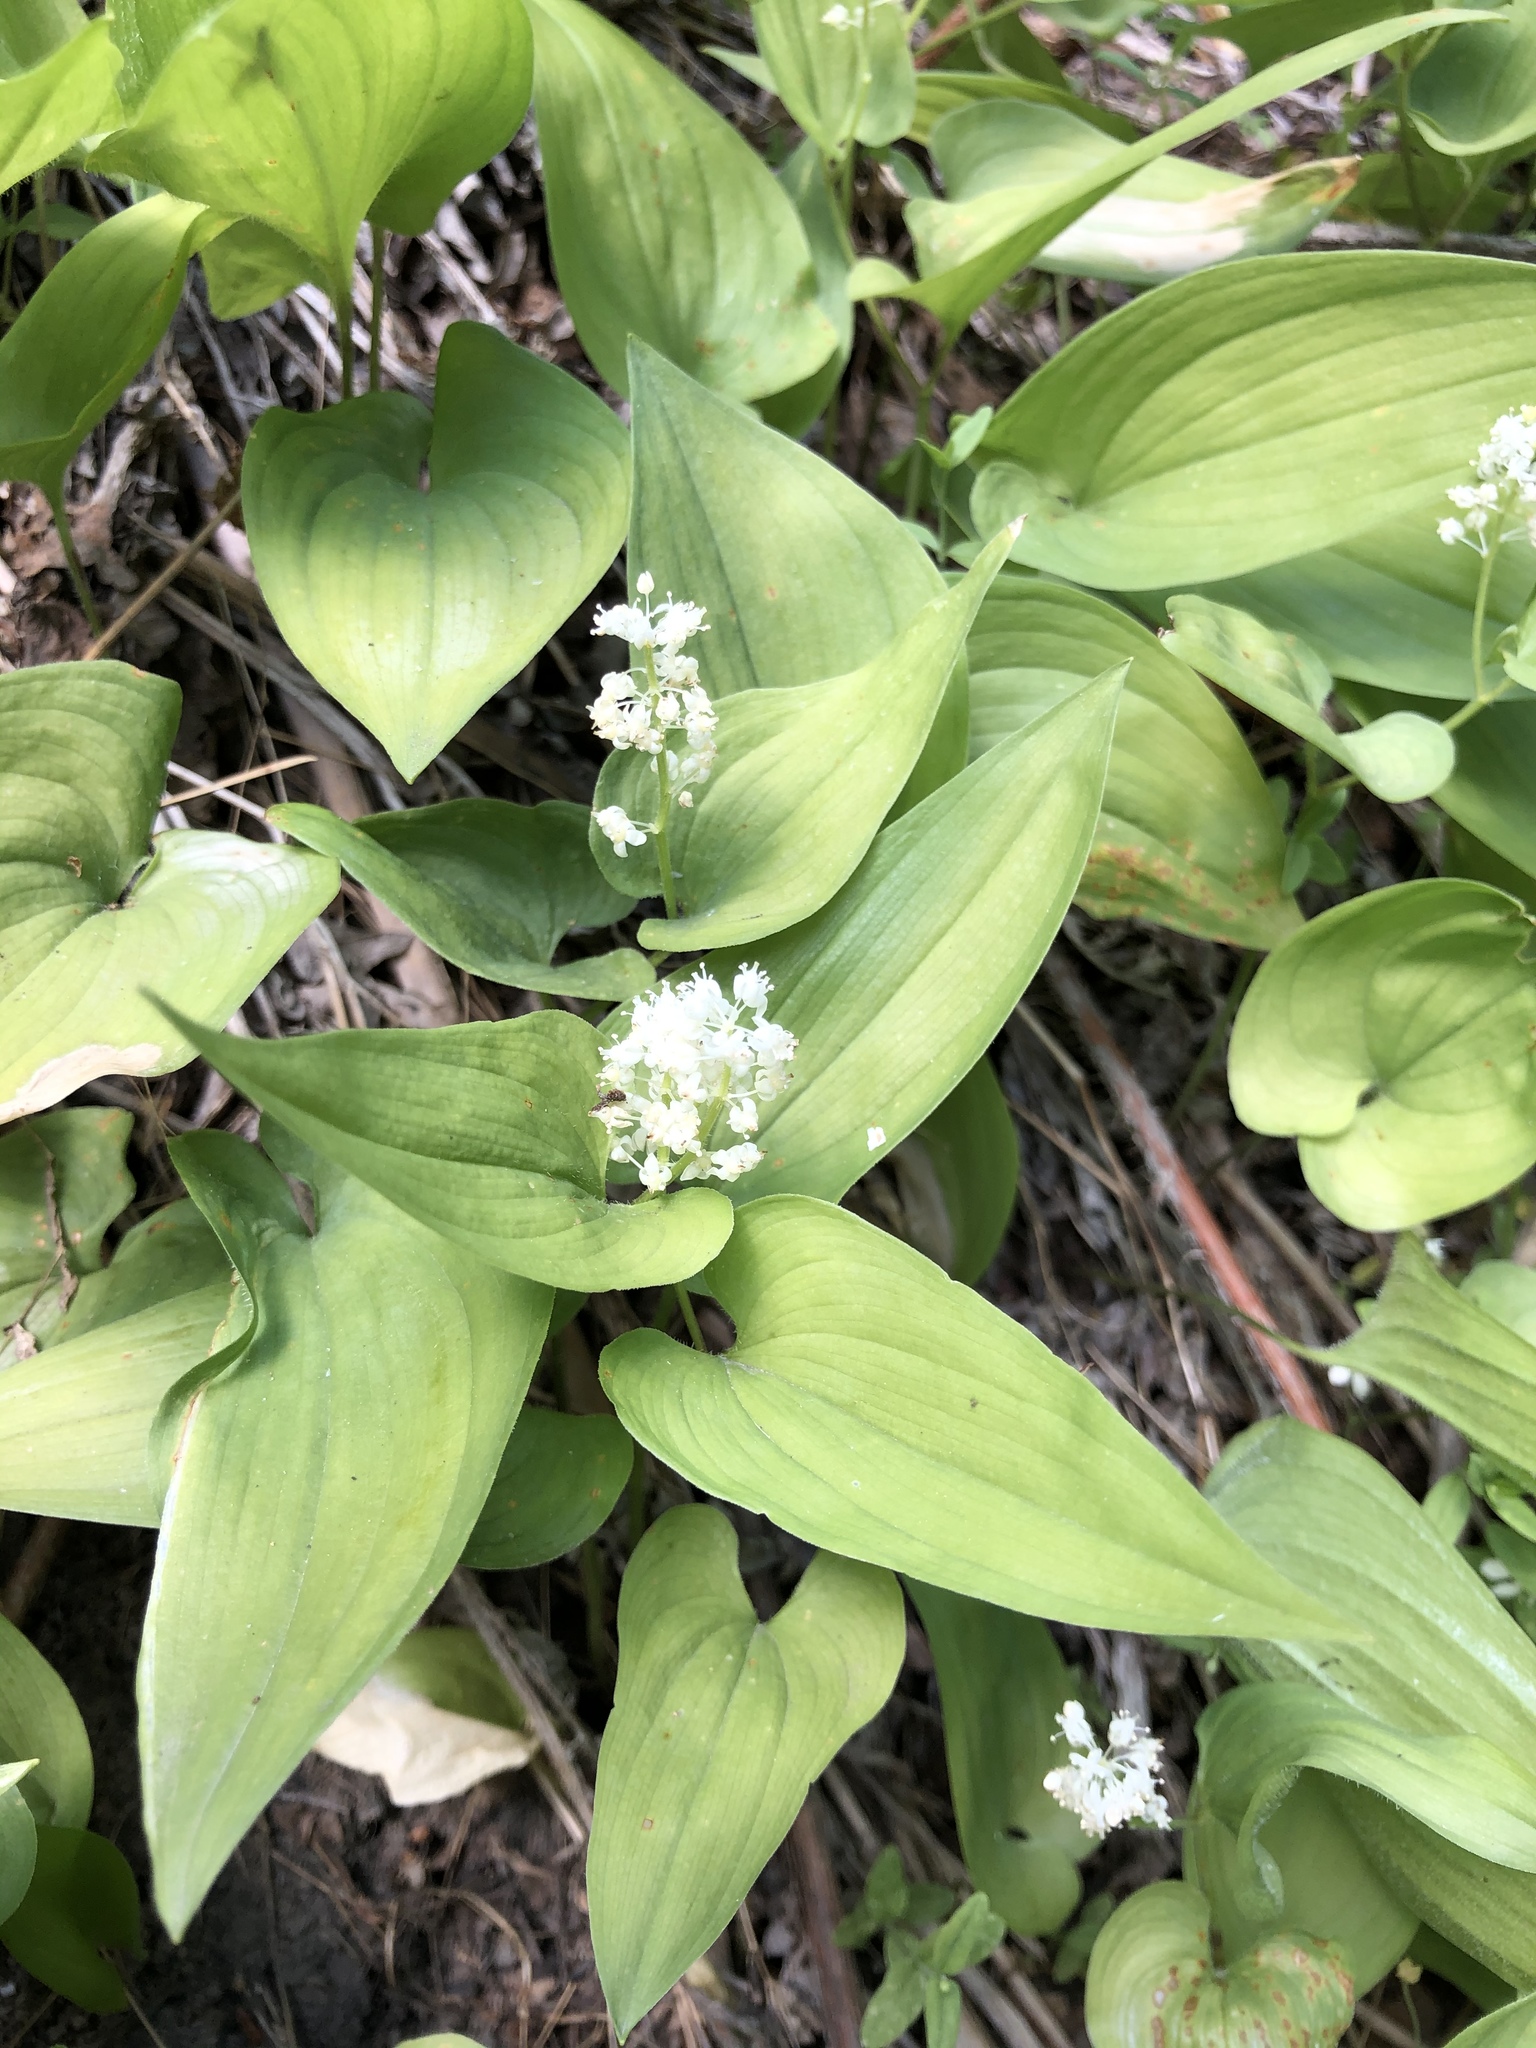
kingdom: Plantae
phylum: Tracheophyta
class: Liliopsida
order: Asparagales
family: Asparagaceae
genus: Maianthemum
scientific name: Maianthemum bifolium
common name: May lily
